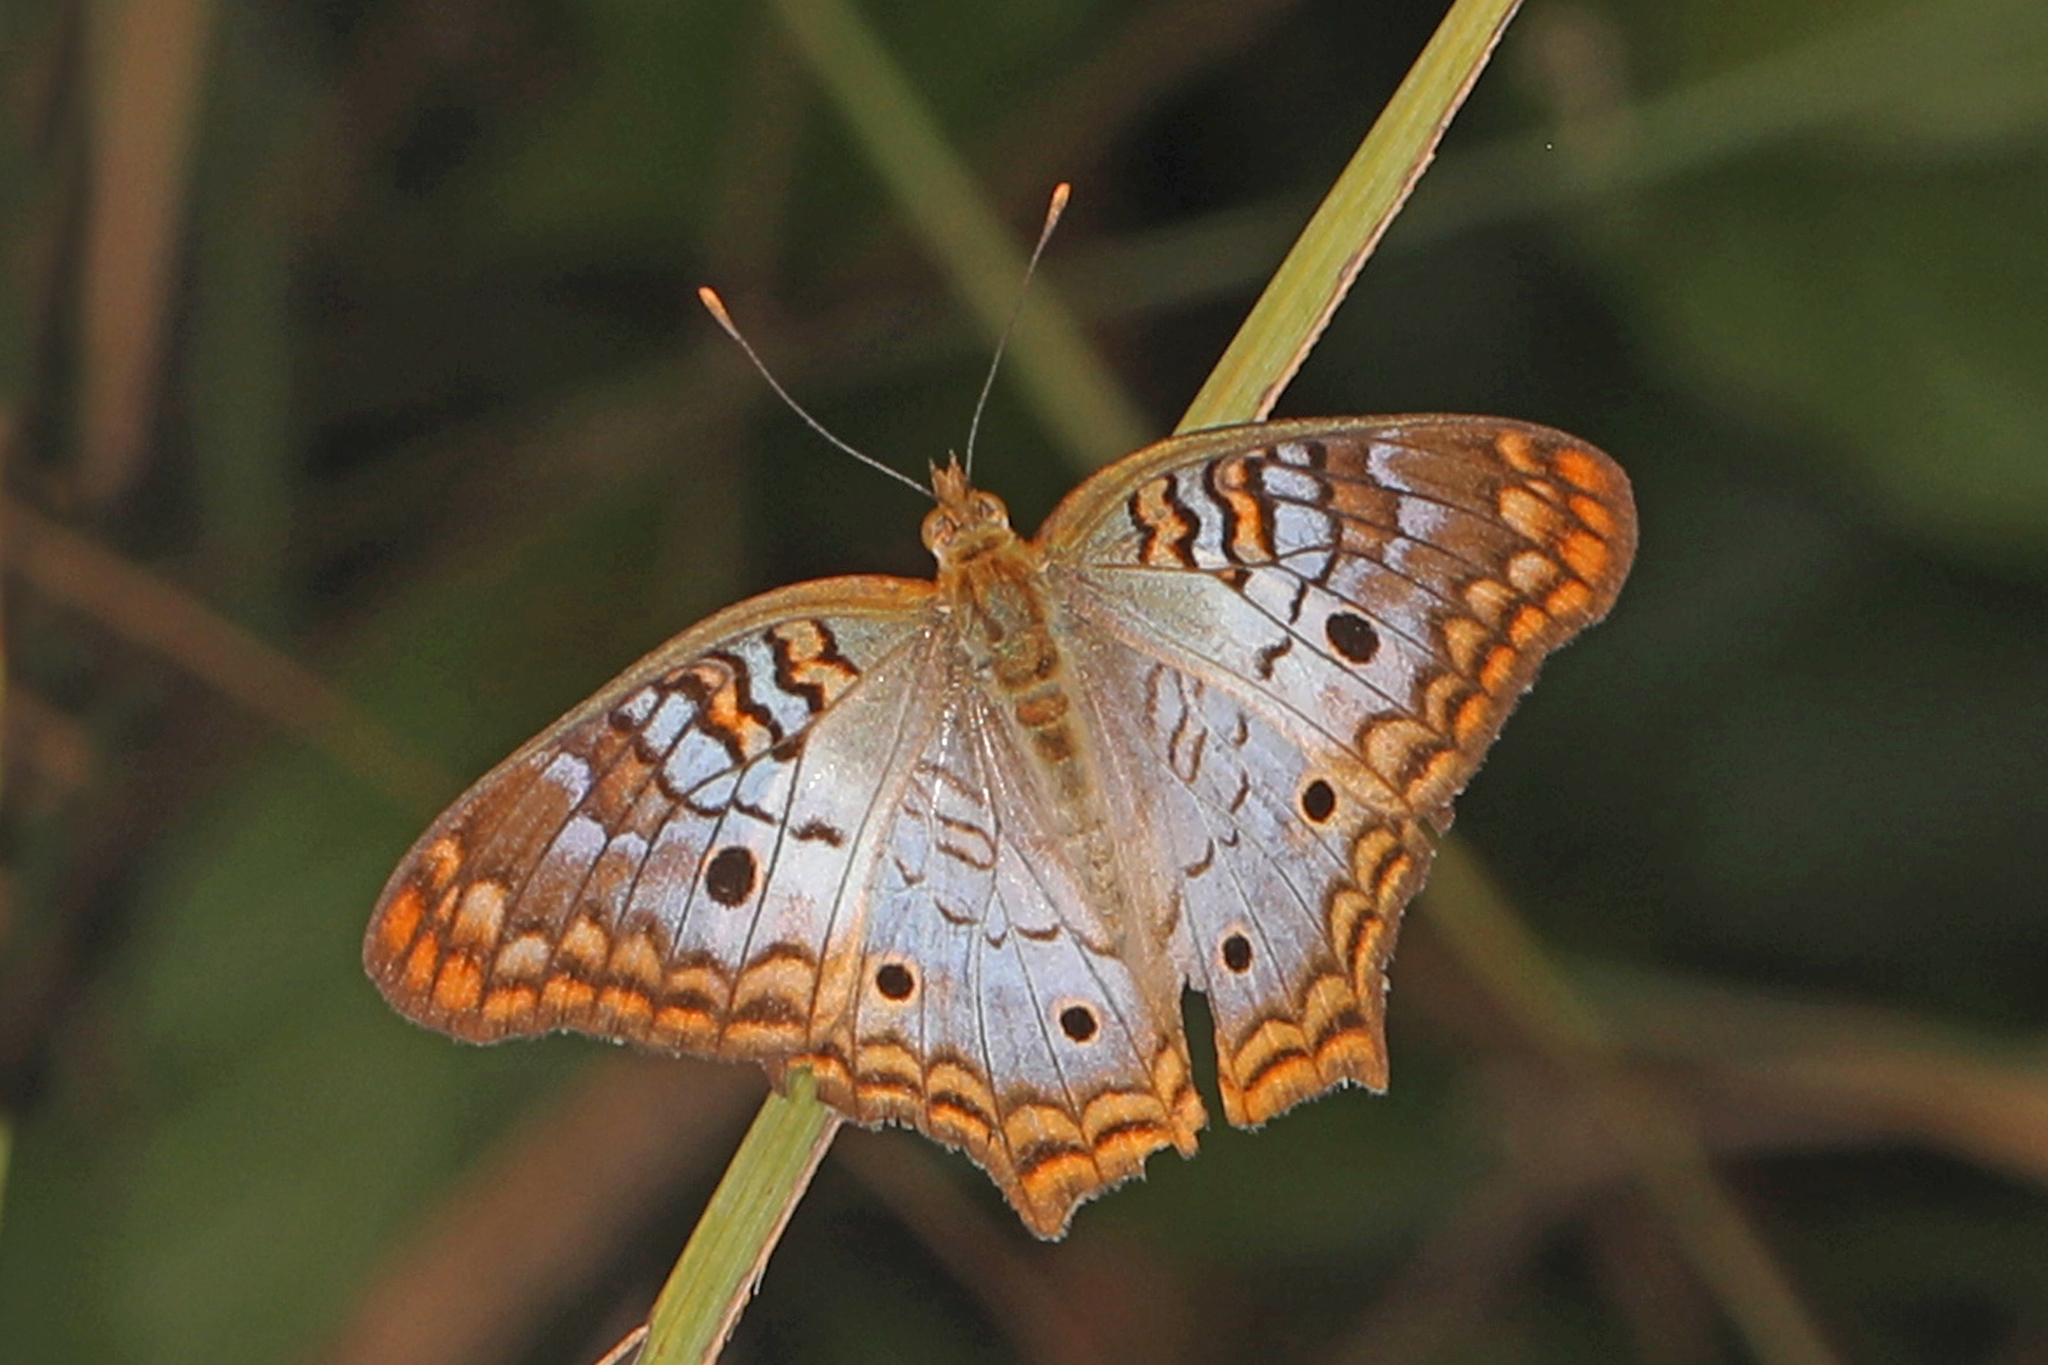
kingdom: Animalia
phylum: Arthropoda
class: Insecta
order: Lepidoptera
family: Nymphalidae
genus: Anartia
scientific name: Anartia jatrophae
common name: White peacock
